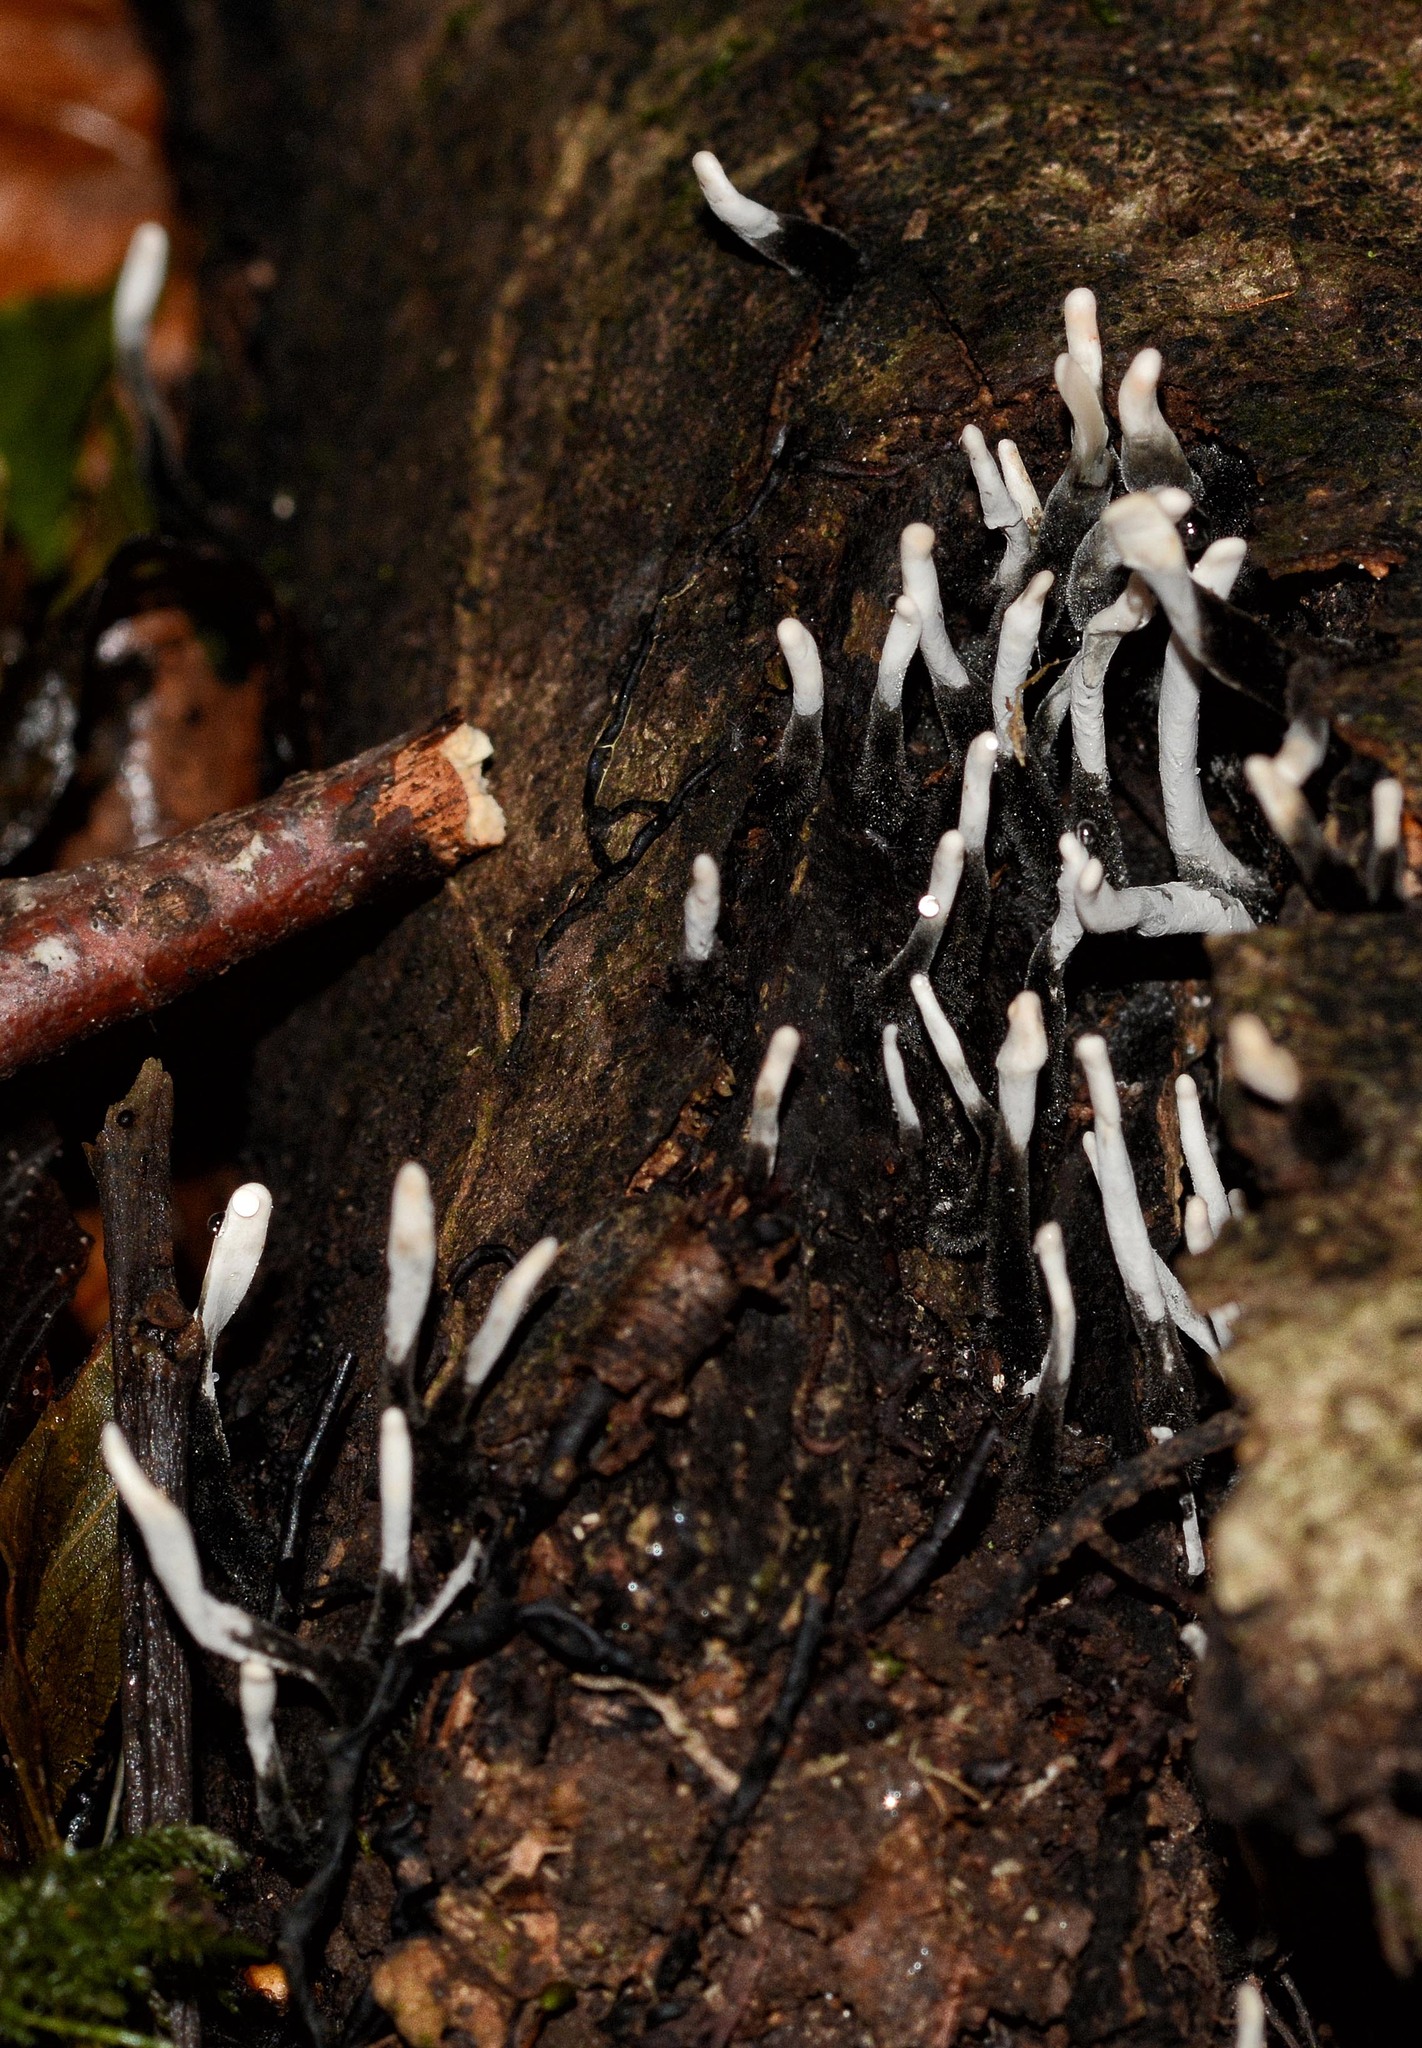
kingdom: Fungi
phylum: Ascomycota
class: Sordariomycetes
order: Xylariales
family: Xylariaceae
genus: Xylaria
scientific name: Xylaria hypoxylon
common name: Candle-snuff fungus
